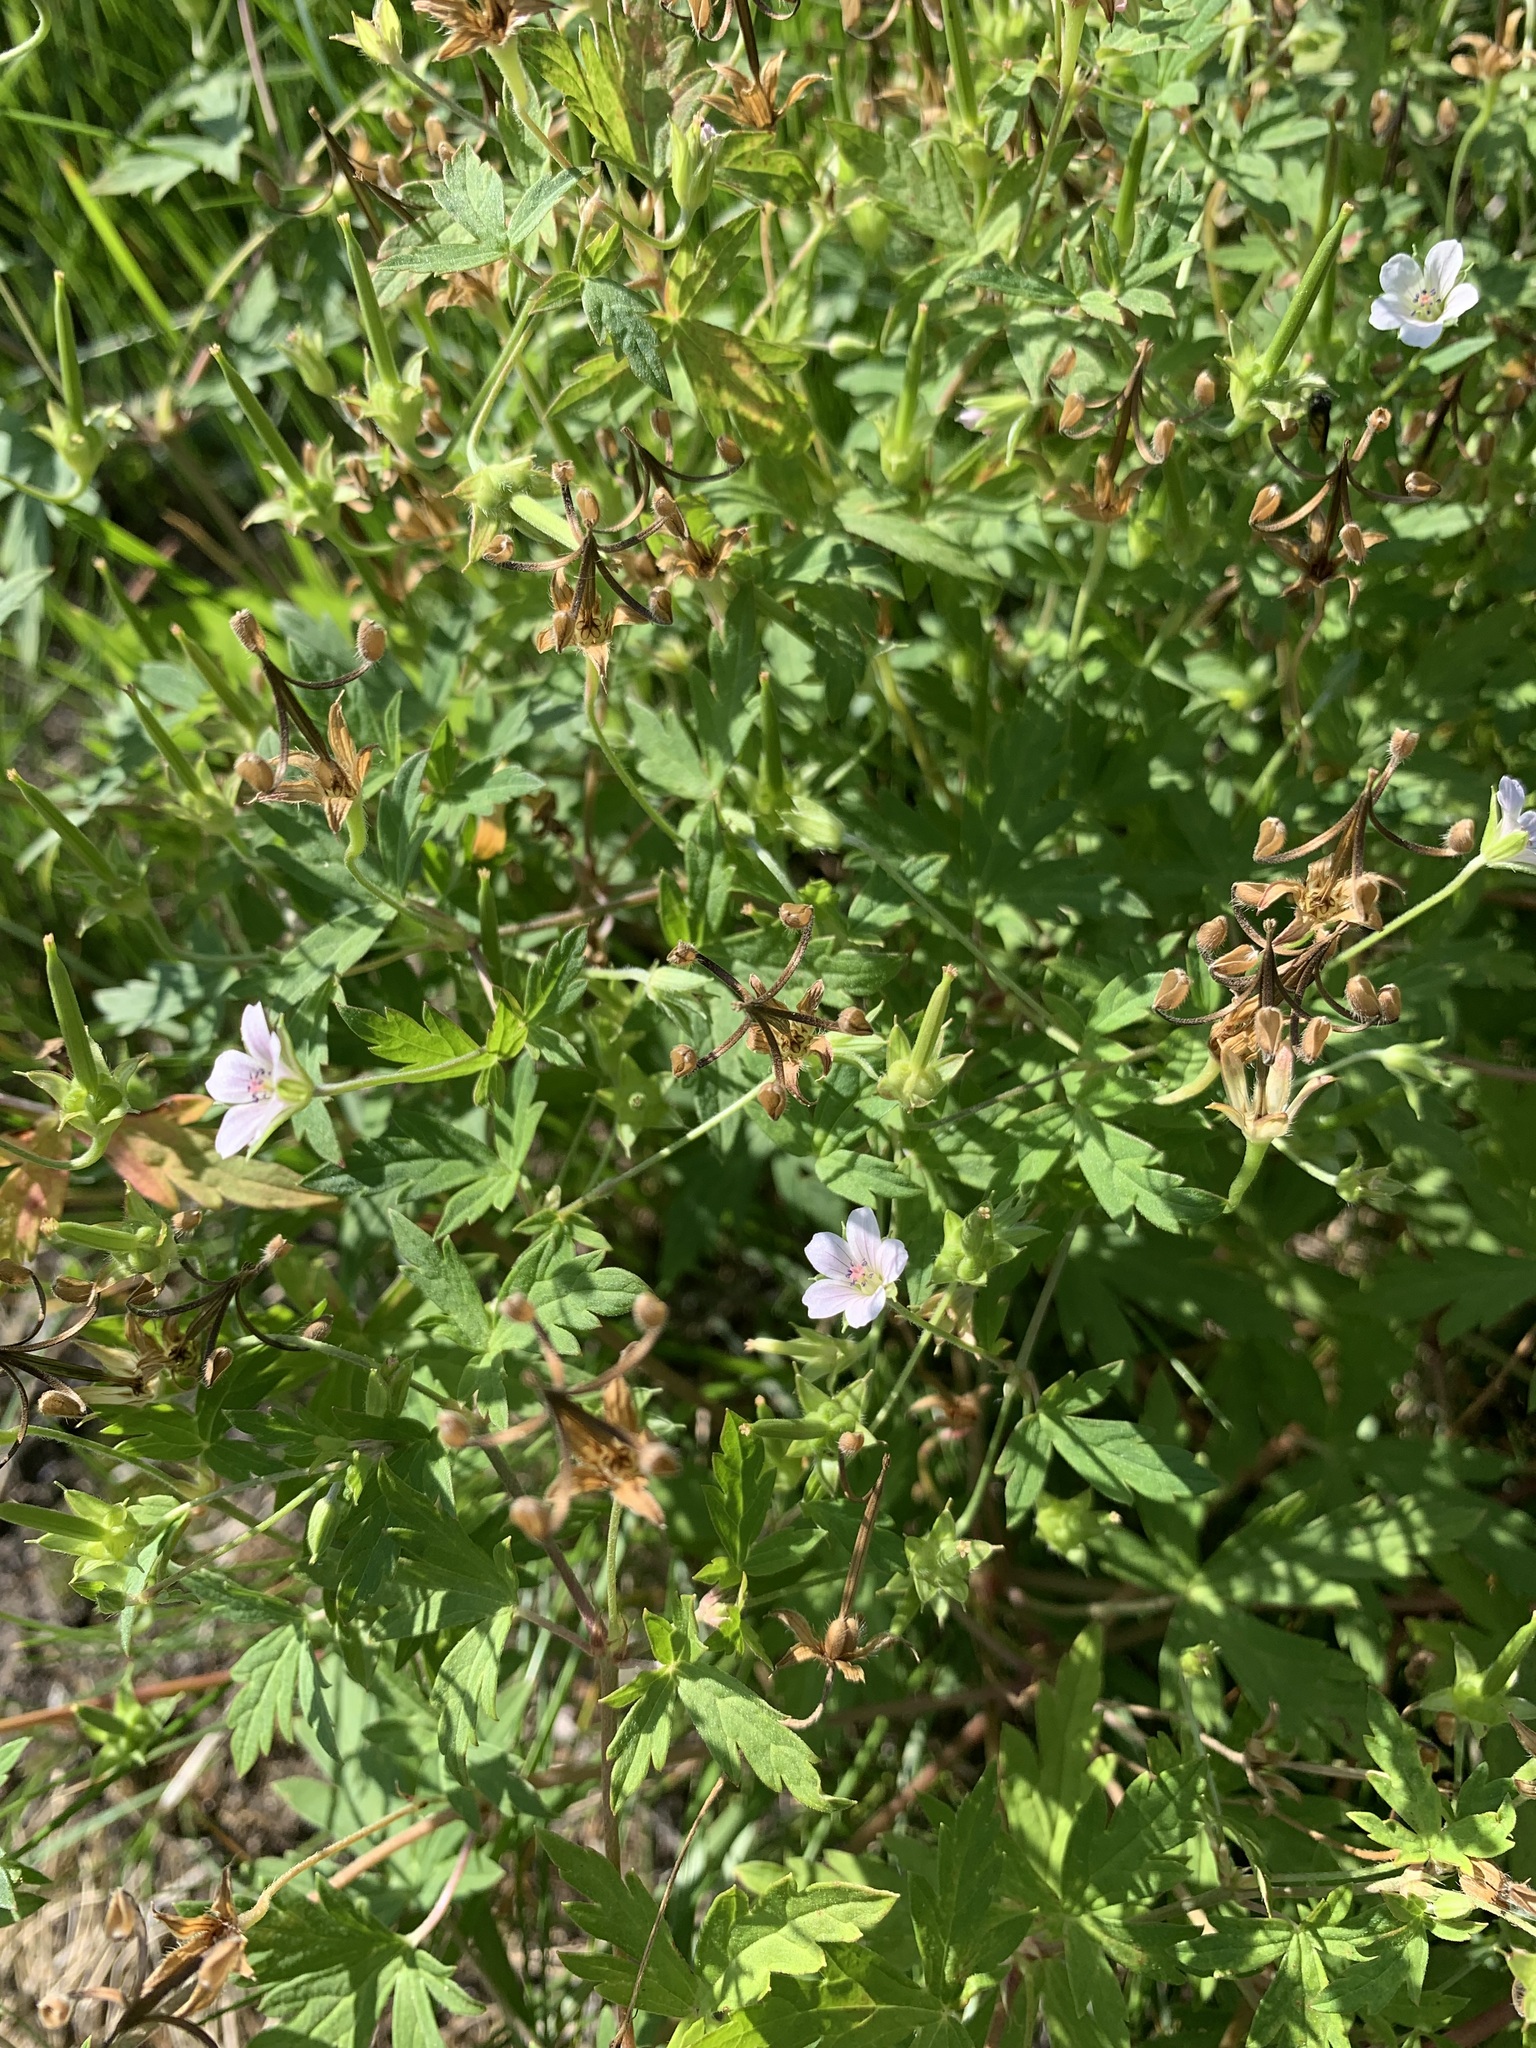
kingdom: Plantae
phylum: Tracheophyta
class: Magnoliopsida
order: Geraniales
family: Geraniaceae
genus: Geranium
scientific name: Geranium sibiricum
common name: Siberian crane's-bill
